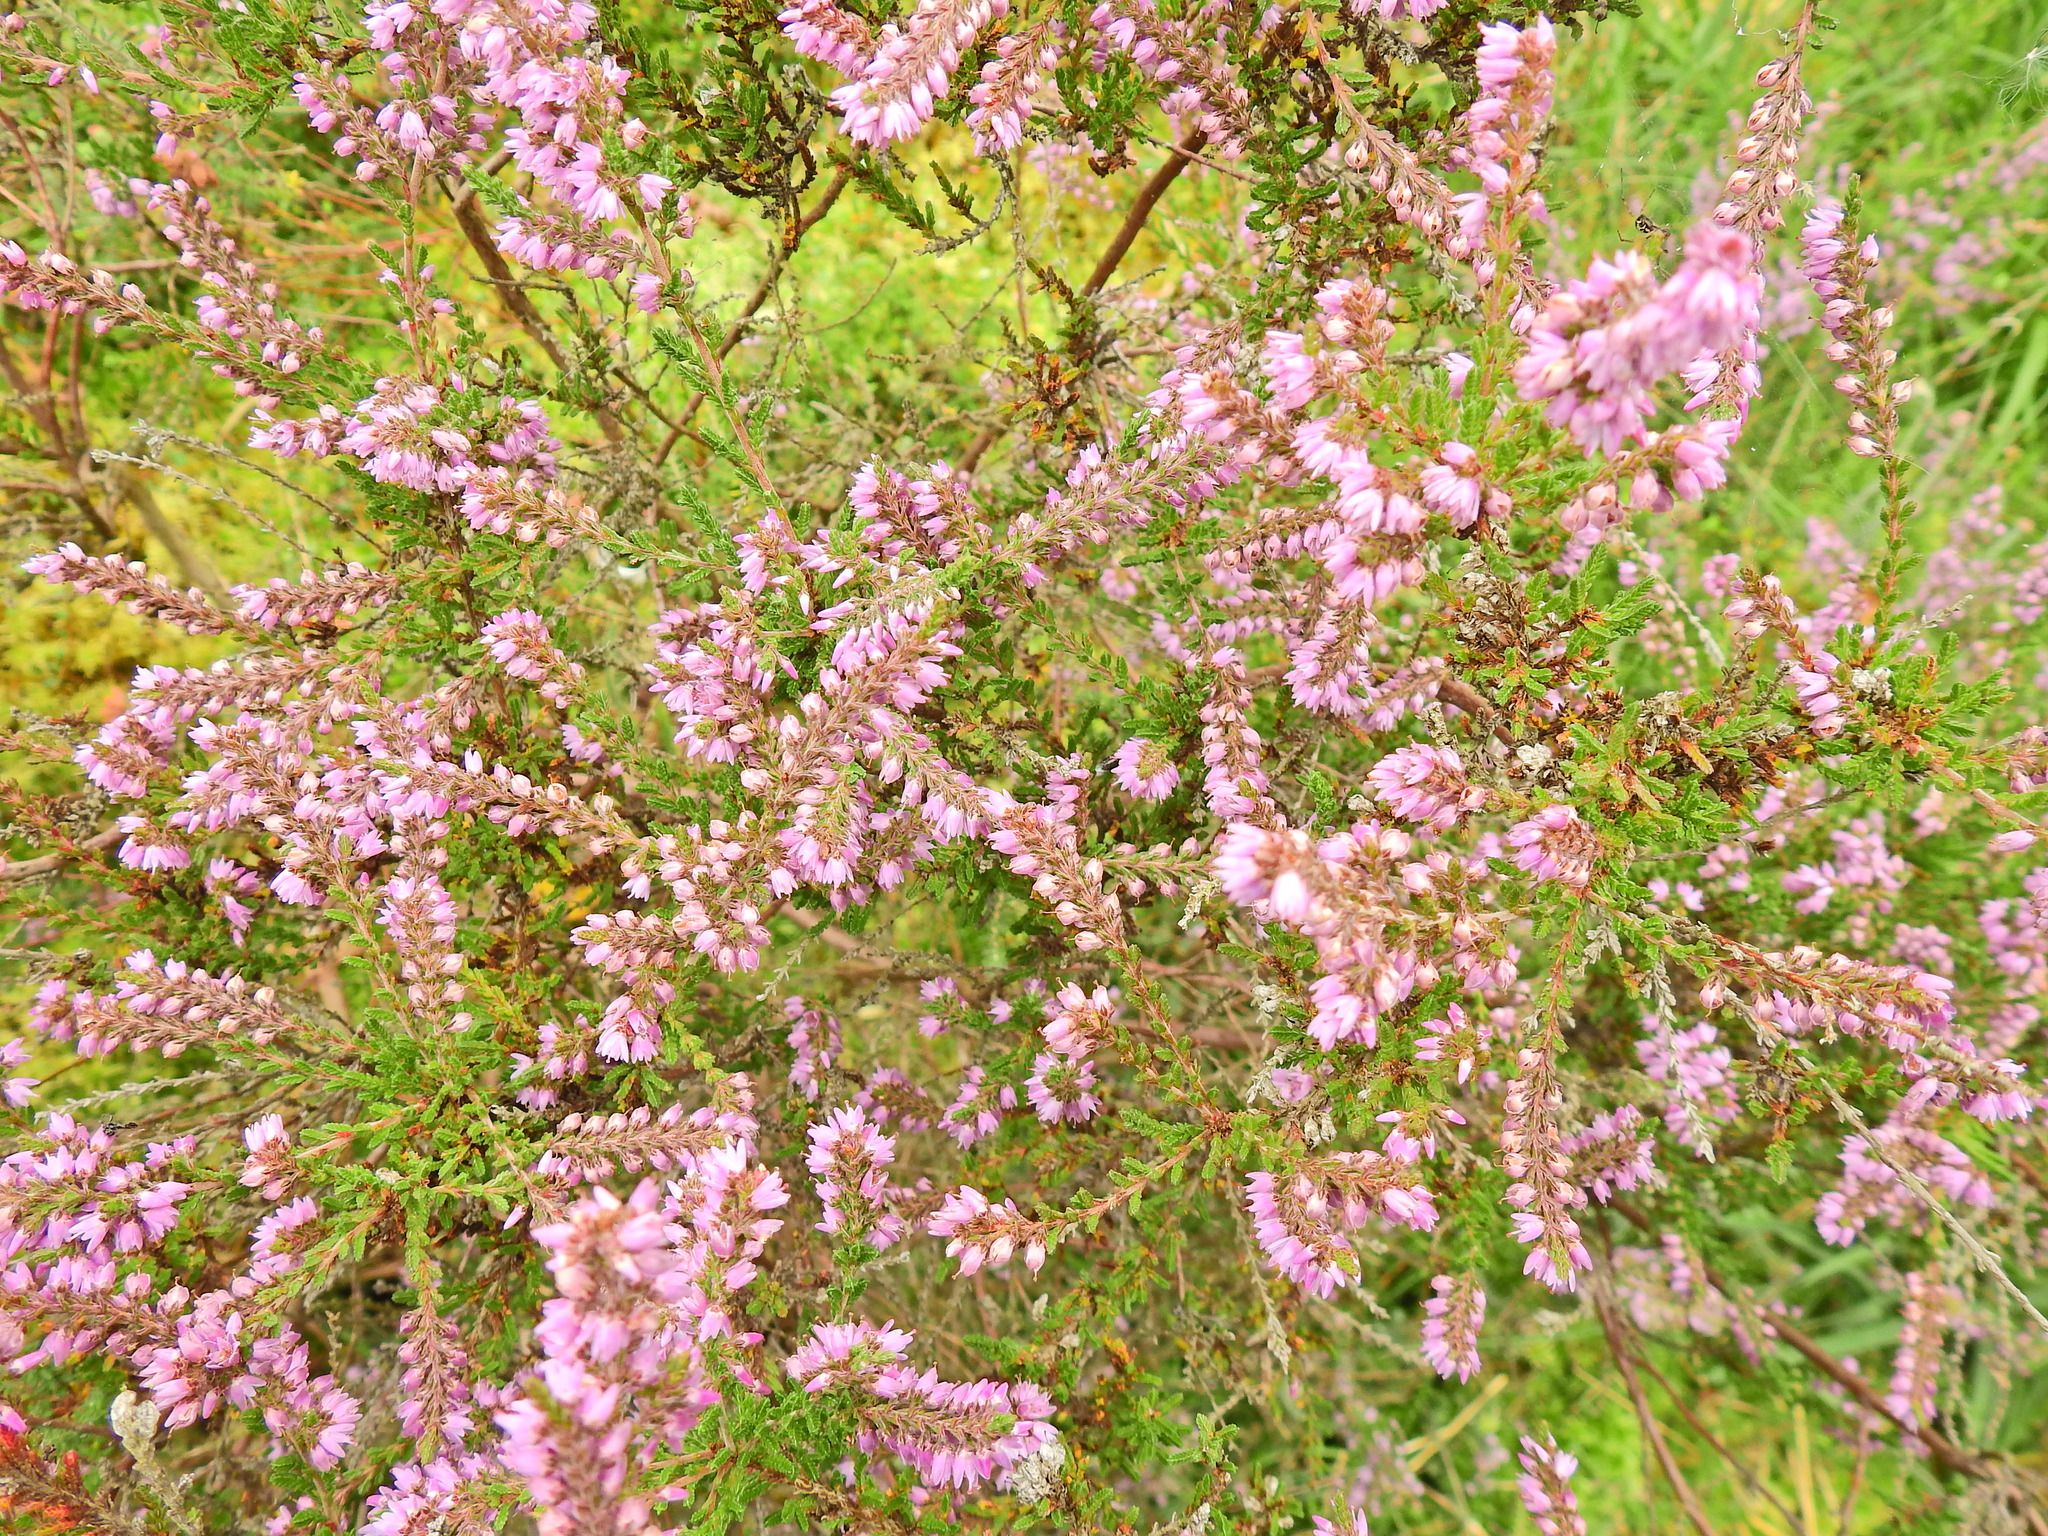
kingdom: Plantae
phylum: Tracheophyta
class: Magnoliopsida
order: Ericales
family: Ericaceae
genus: Calluna
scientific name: Calluna vulgaris
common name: Heather
